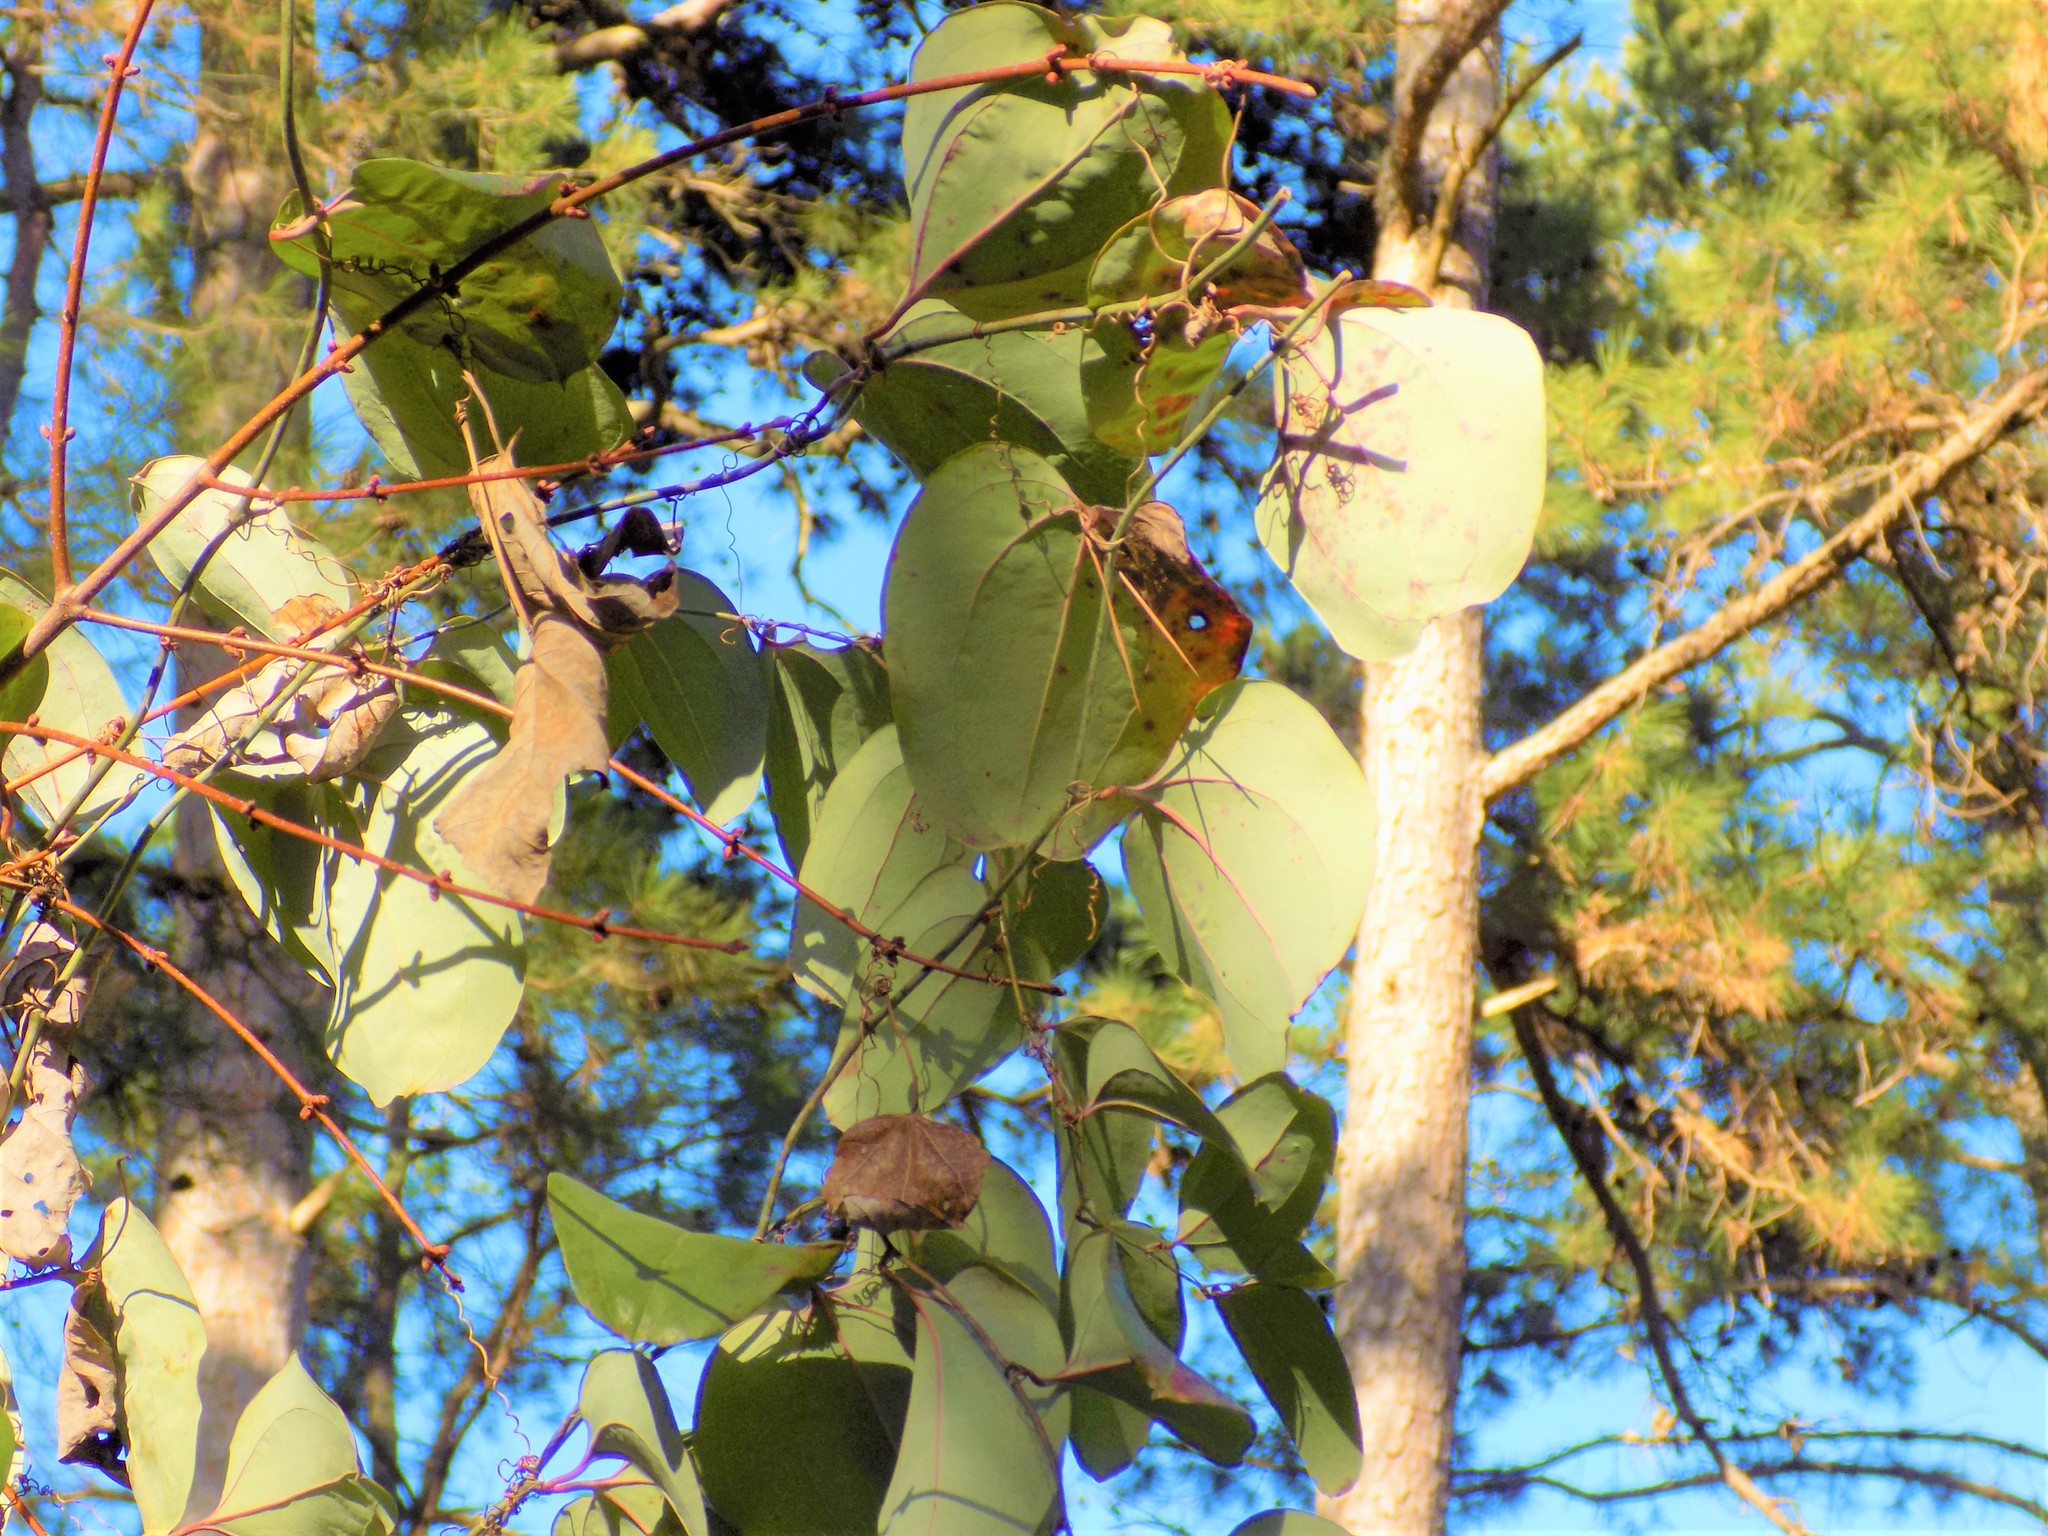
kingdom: Plantae
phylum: Tracheophyta
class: Liliopsida
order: Liliales
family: Smilacaceae
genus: Smilax
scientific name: Smilax glauca
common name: Cat greenbrier
